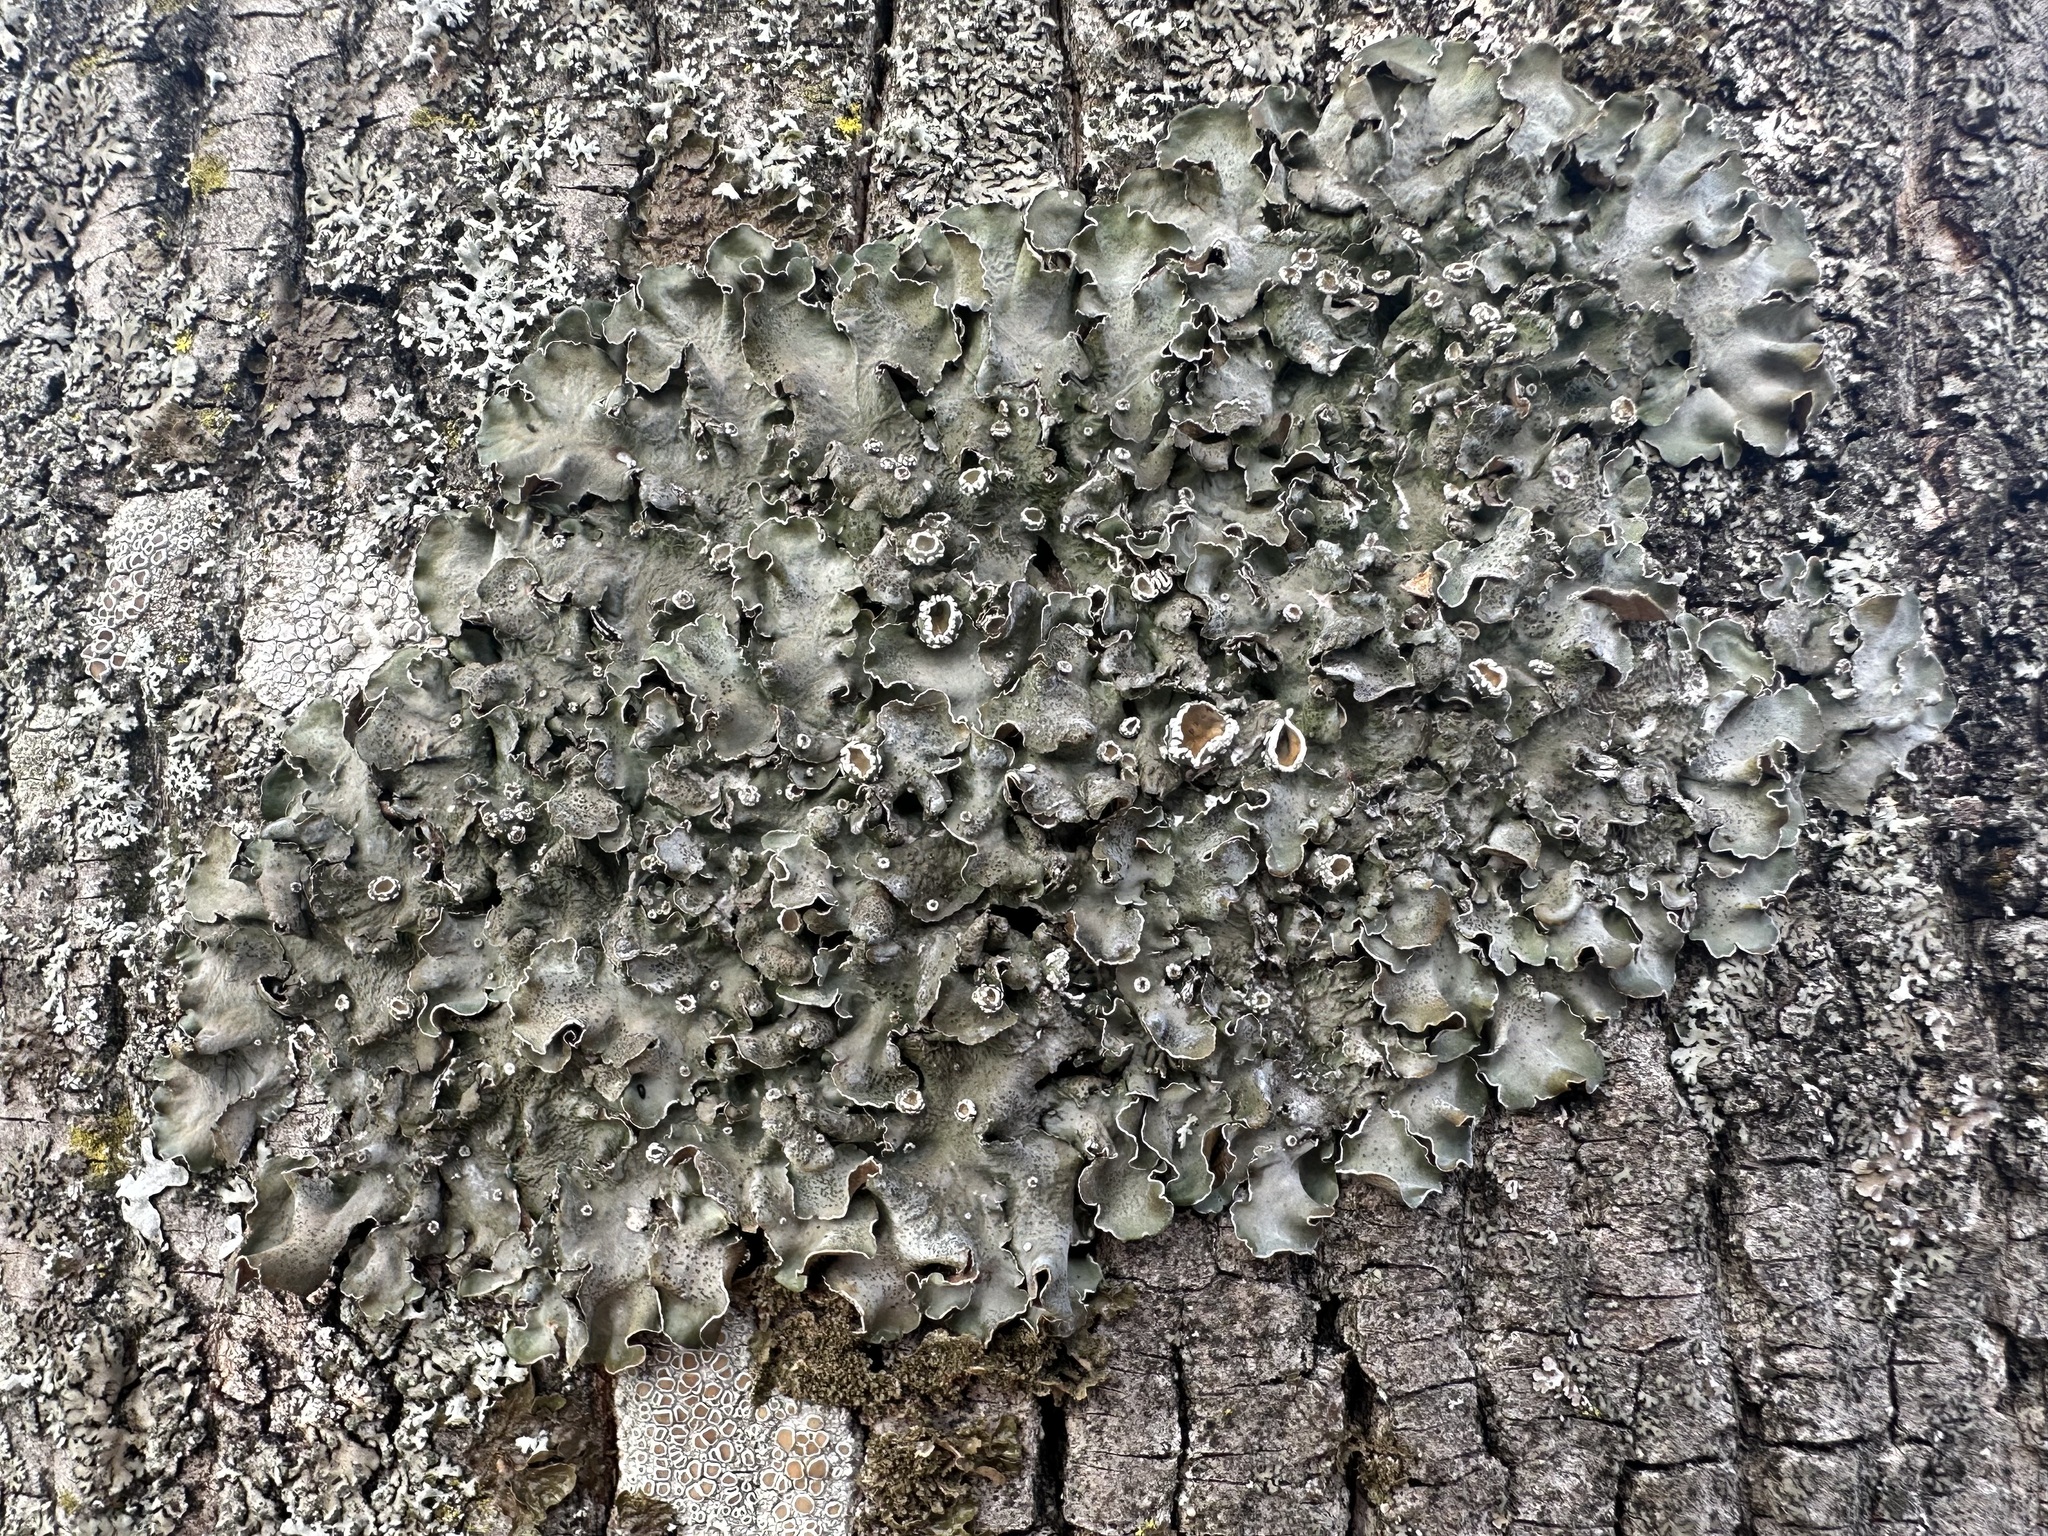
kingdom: Fungi
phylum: Ascomycota
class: Lecanoromycetes
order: Lecanorales
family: Parmeliaceae
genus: Pleurosticta
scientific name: Pleurosticta acetabulum
